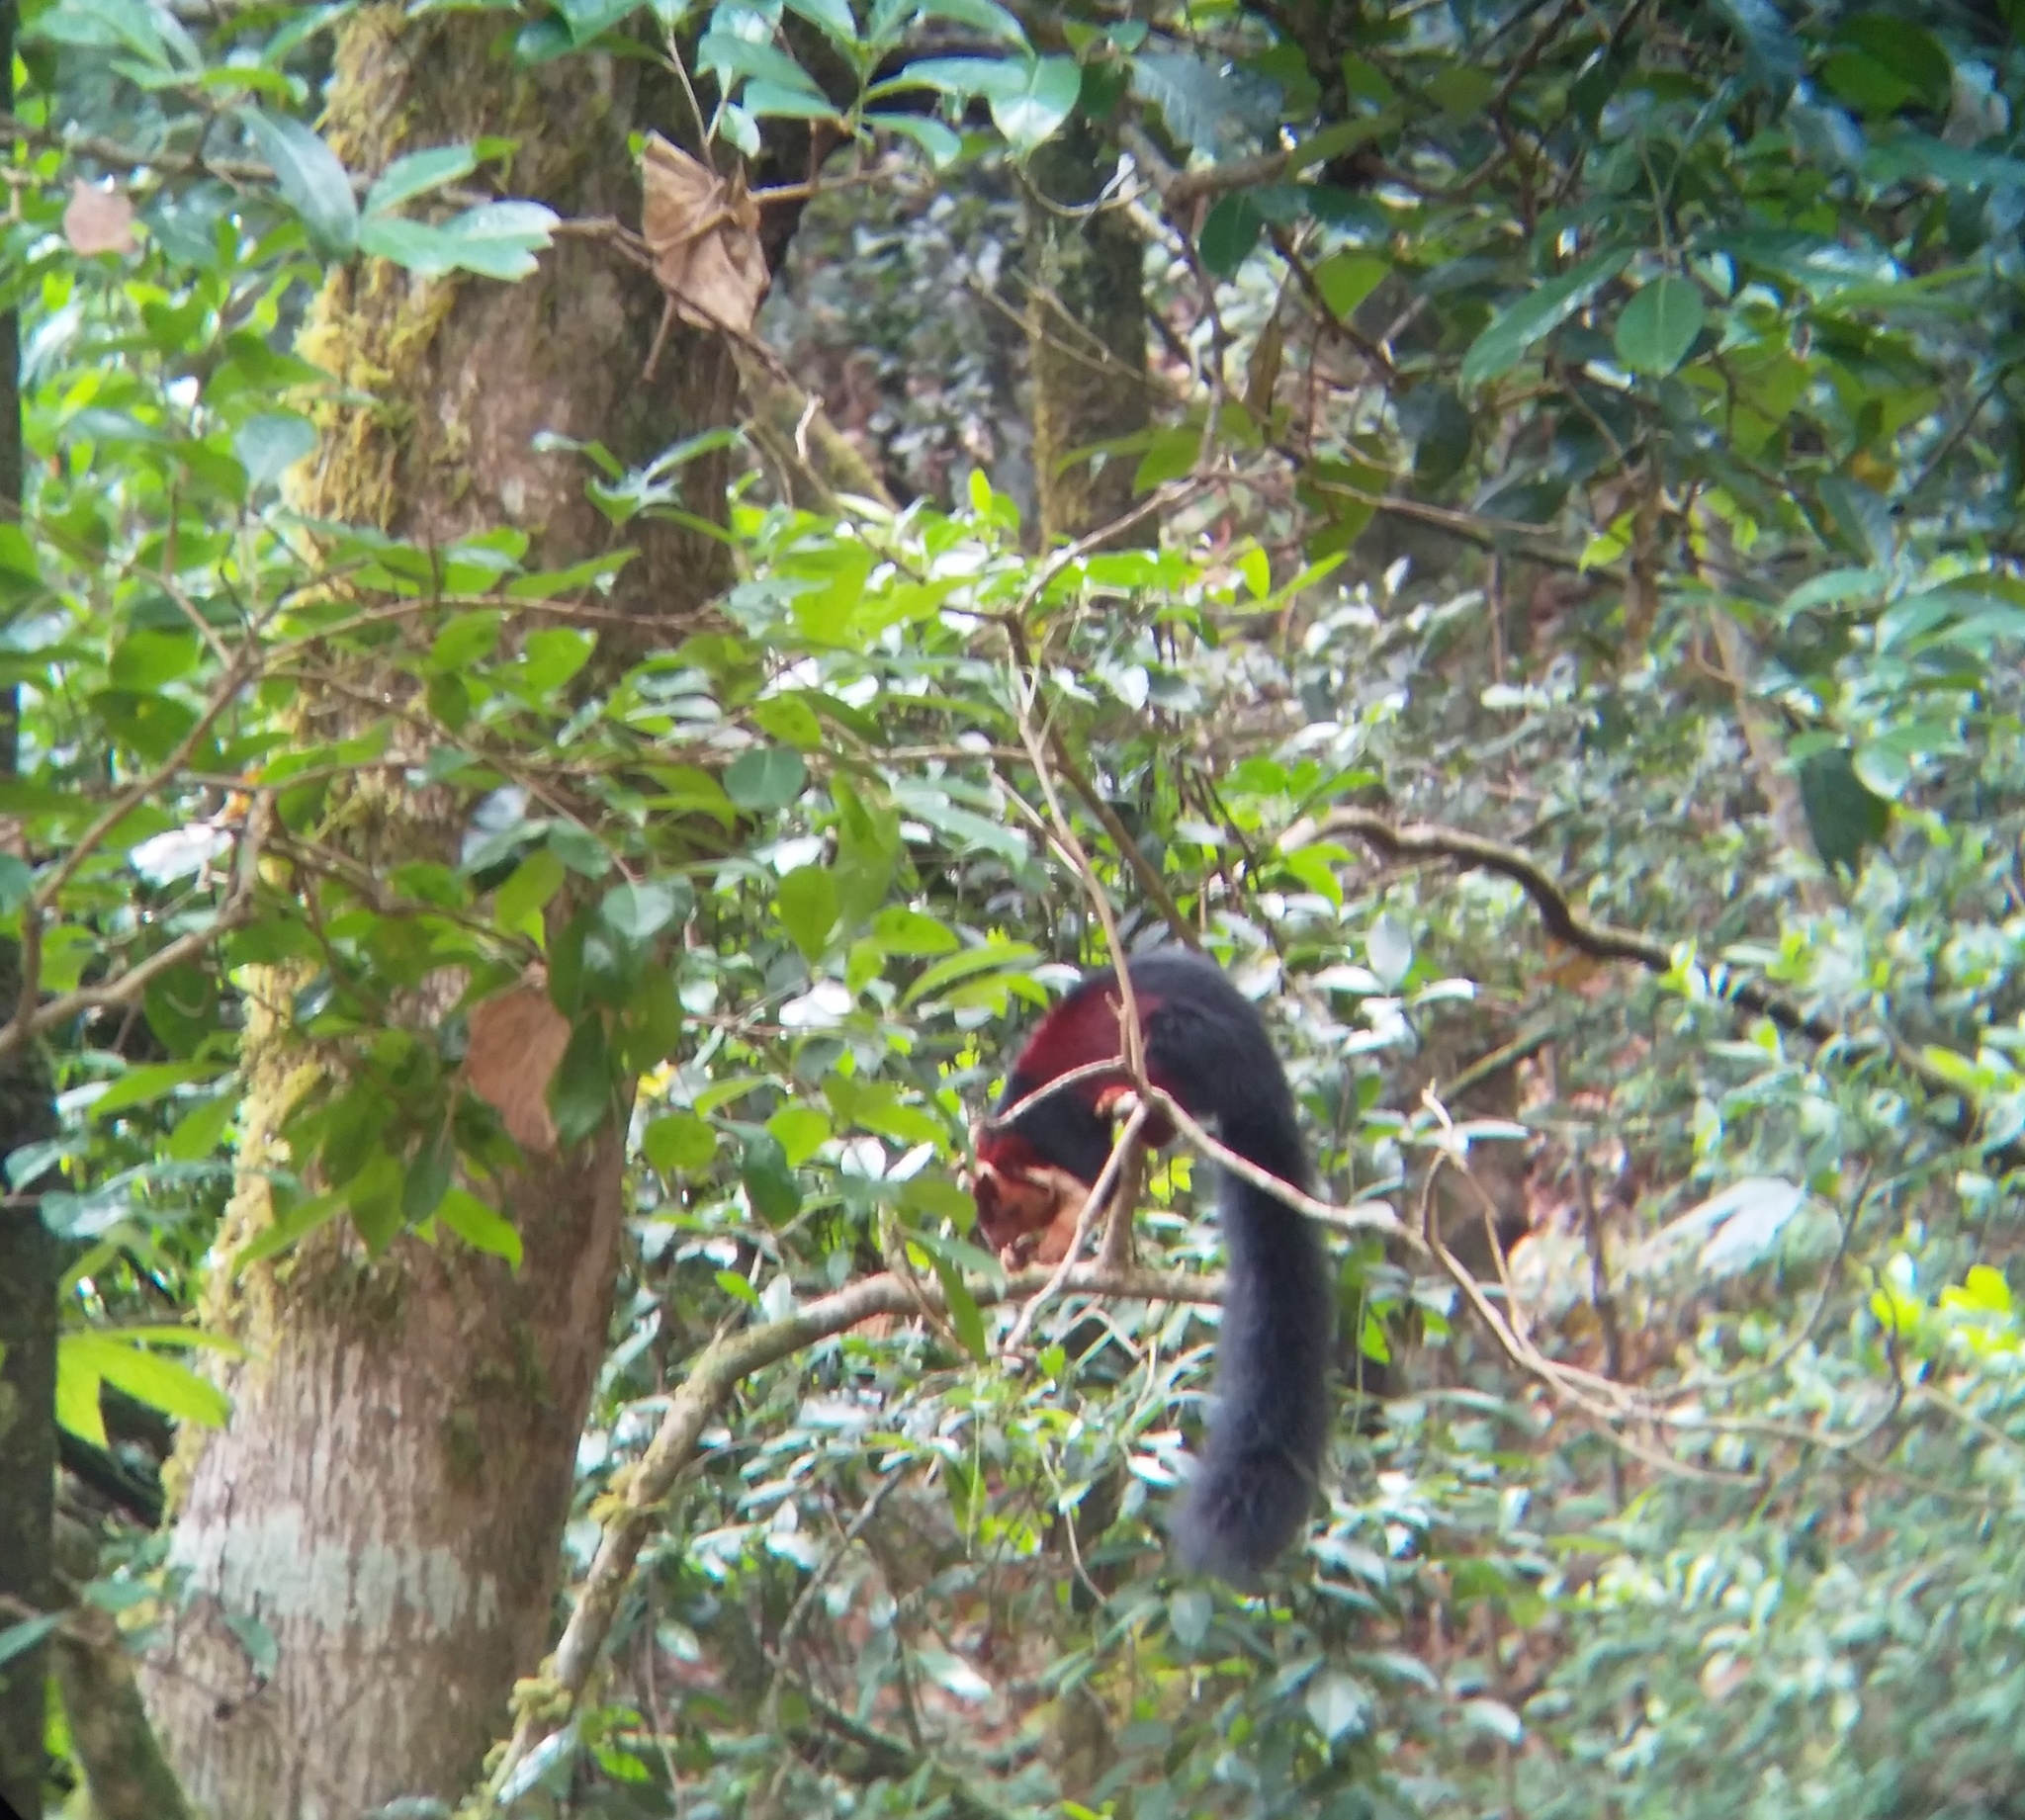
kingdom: Animalia
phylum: Chordata
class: Mammalia
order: Rodentia
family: Sciuridae
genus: Ratufa
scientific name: Ratufa indica
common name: Indian giant squirrel
